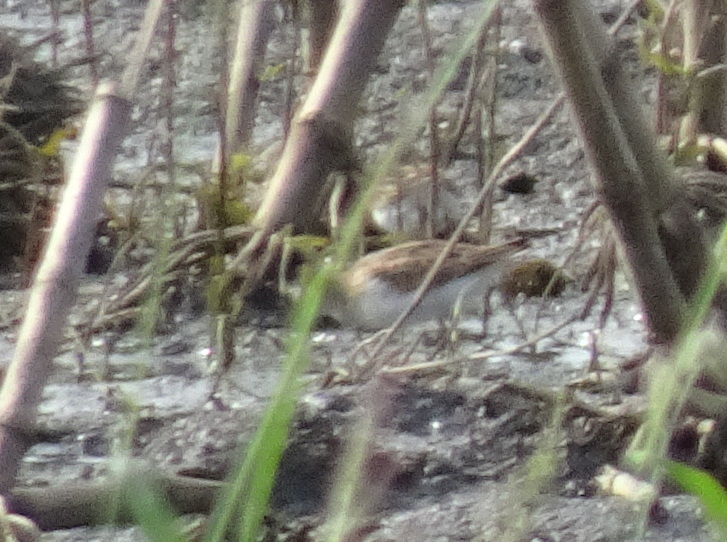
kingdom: Animalia
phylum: Chordata
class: Aves
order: Charadriiformes
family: Scolopacidae
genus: Calidris
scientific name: Calidris minutilla
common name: Least sandpiper
